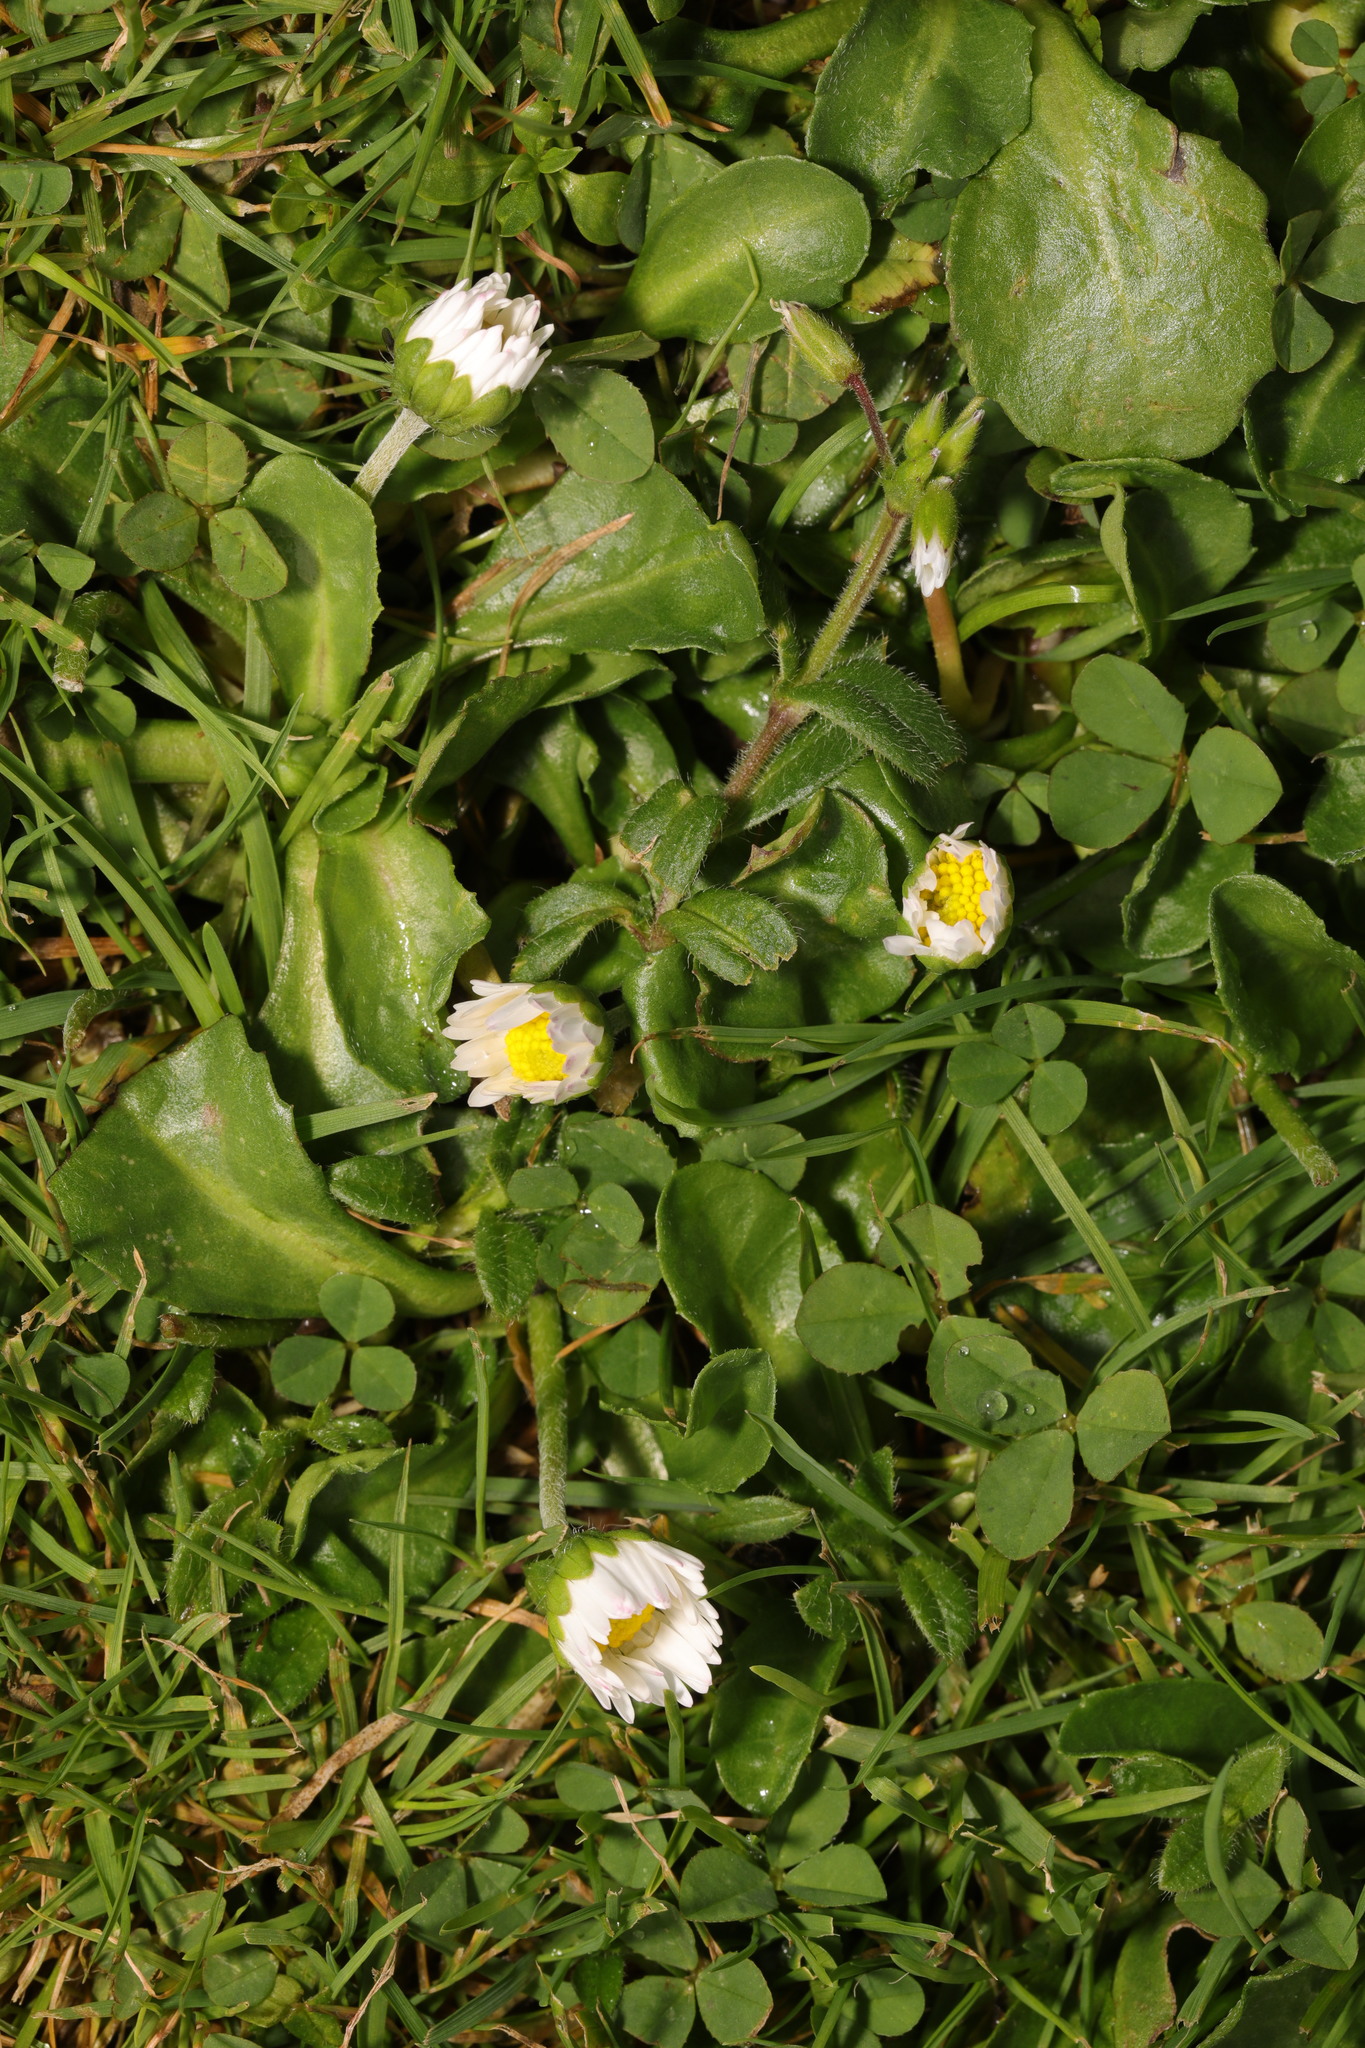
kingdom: Plantae
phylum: Tracheophyta
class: Magnoliopsida
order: Asterales
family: Asteraceae
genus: Bellis
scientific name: Bellis perennis
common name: Lawndaisy
